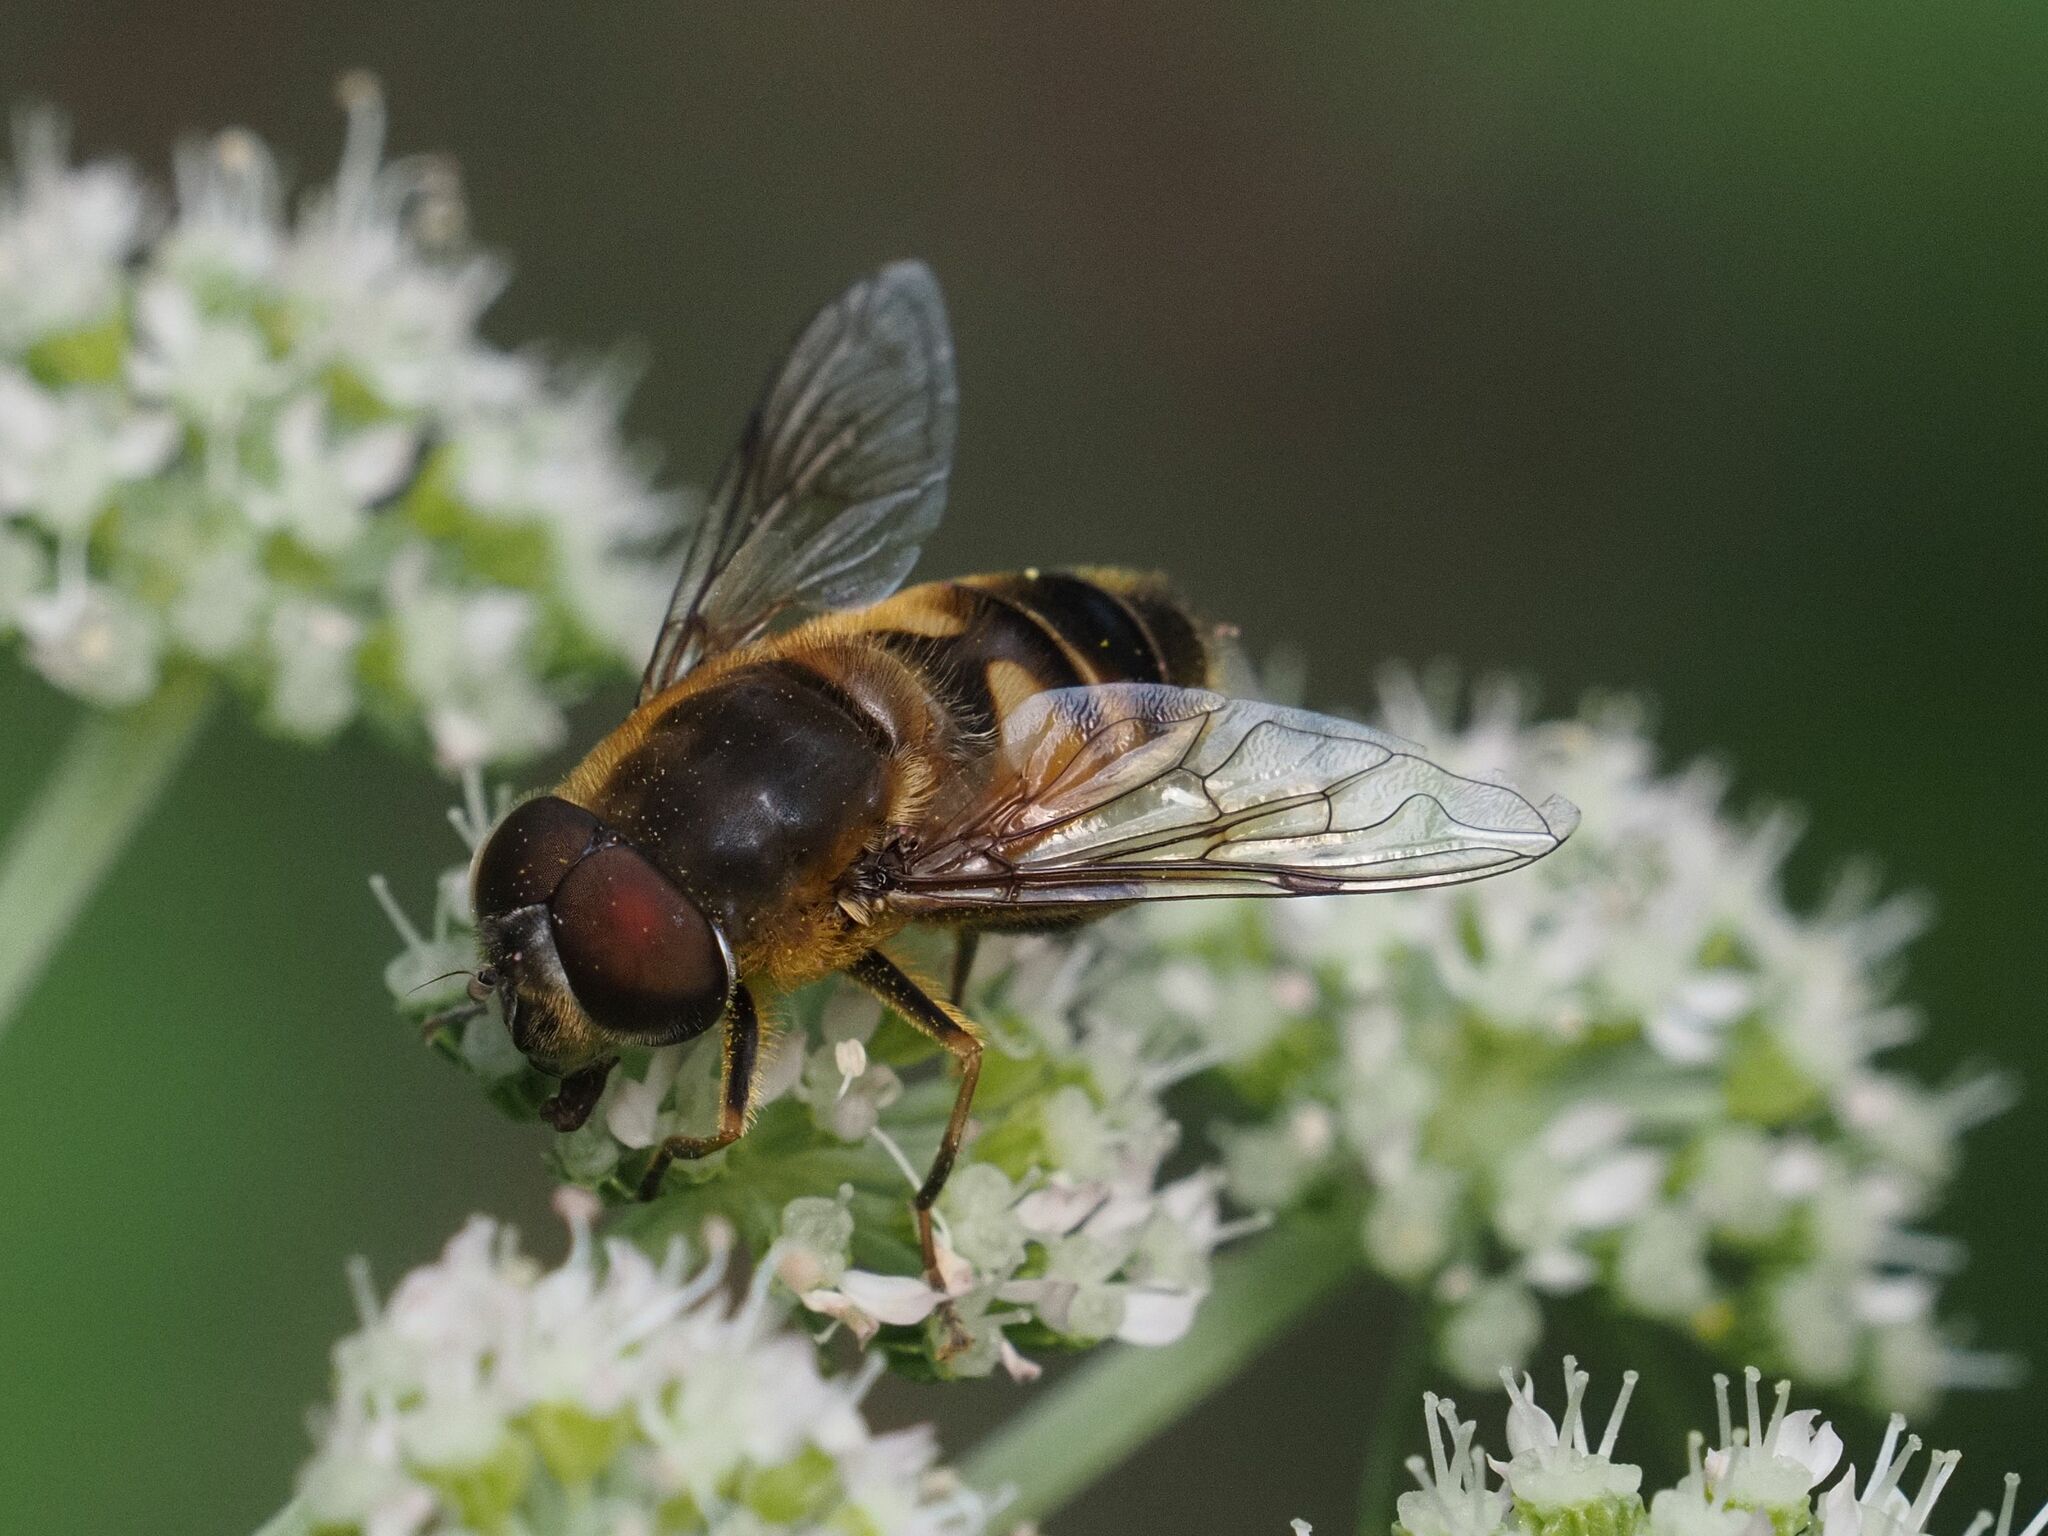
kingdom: Animalia
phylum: Arthropoda
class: Insecta
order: Diptera
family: Syrphidae
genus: Eristalis
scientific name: Eristalis pertinax
